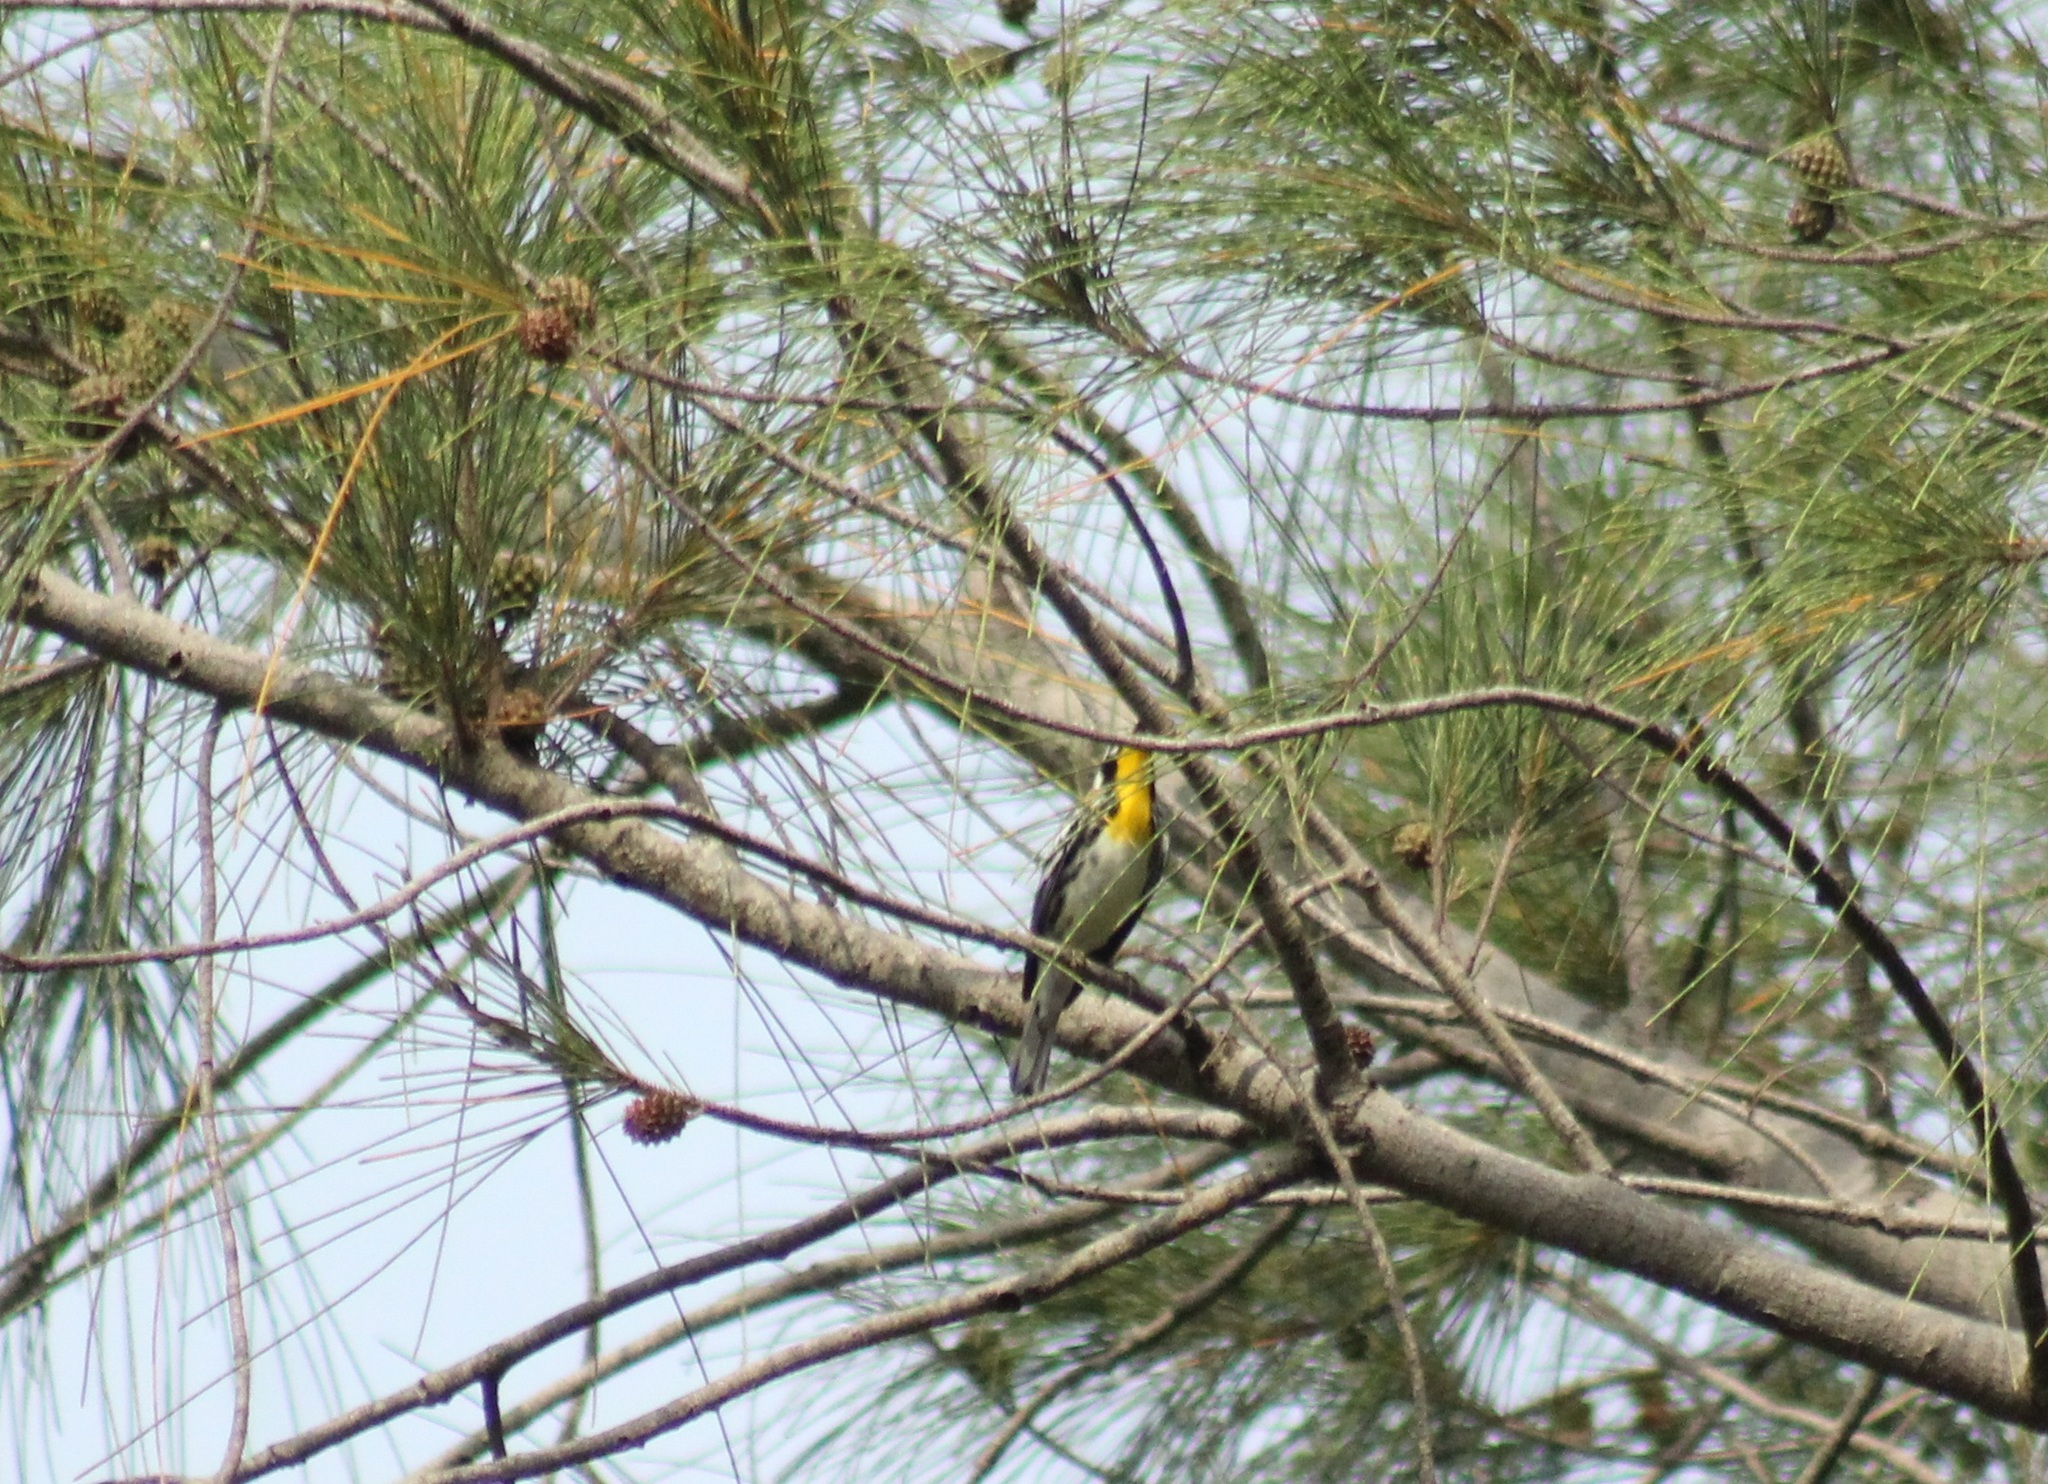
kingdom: Animalia
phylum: Chordata
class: Aves
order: Passeriformes
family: Parulidae
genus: Setophaga
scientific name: Setophaga dominica
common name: Yellow-throated warbler
